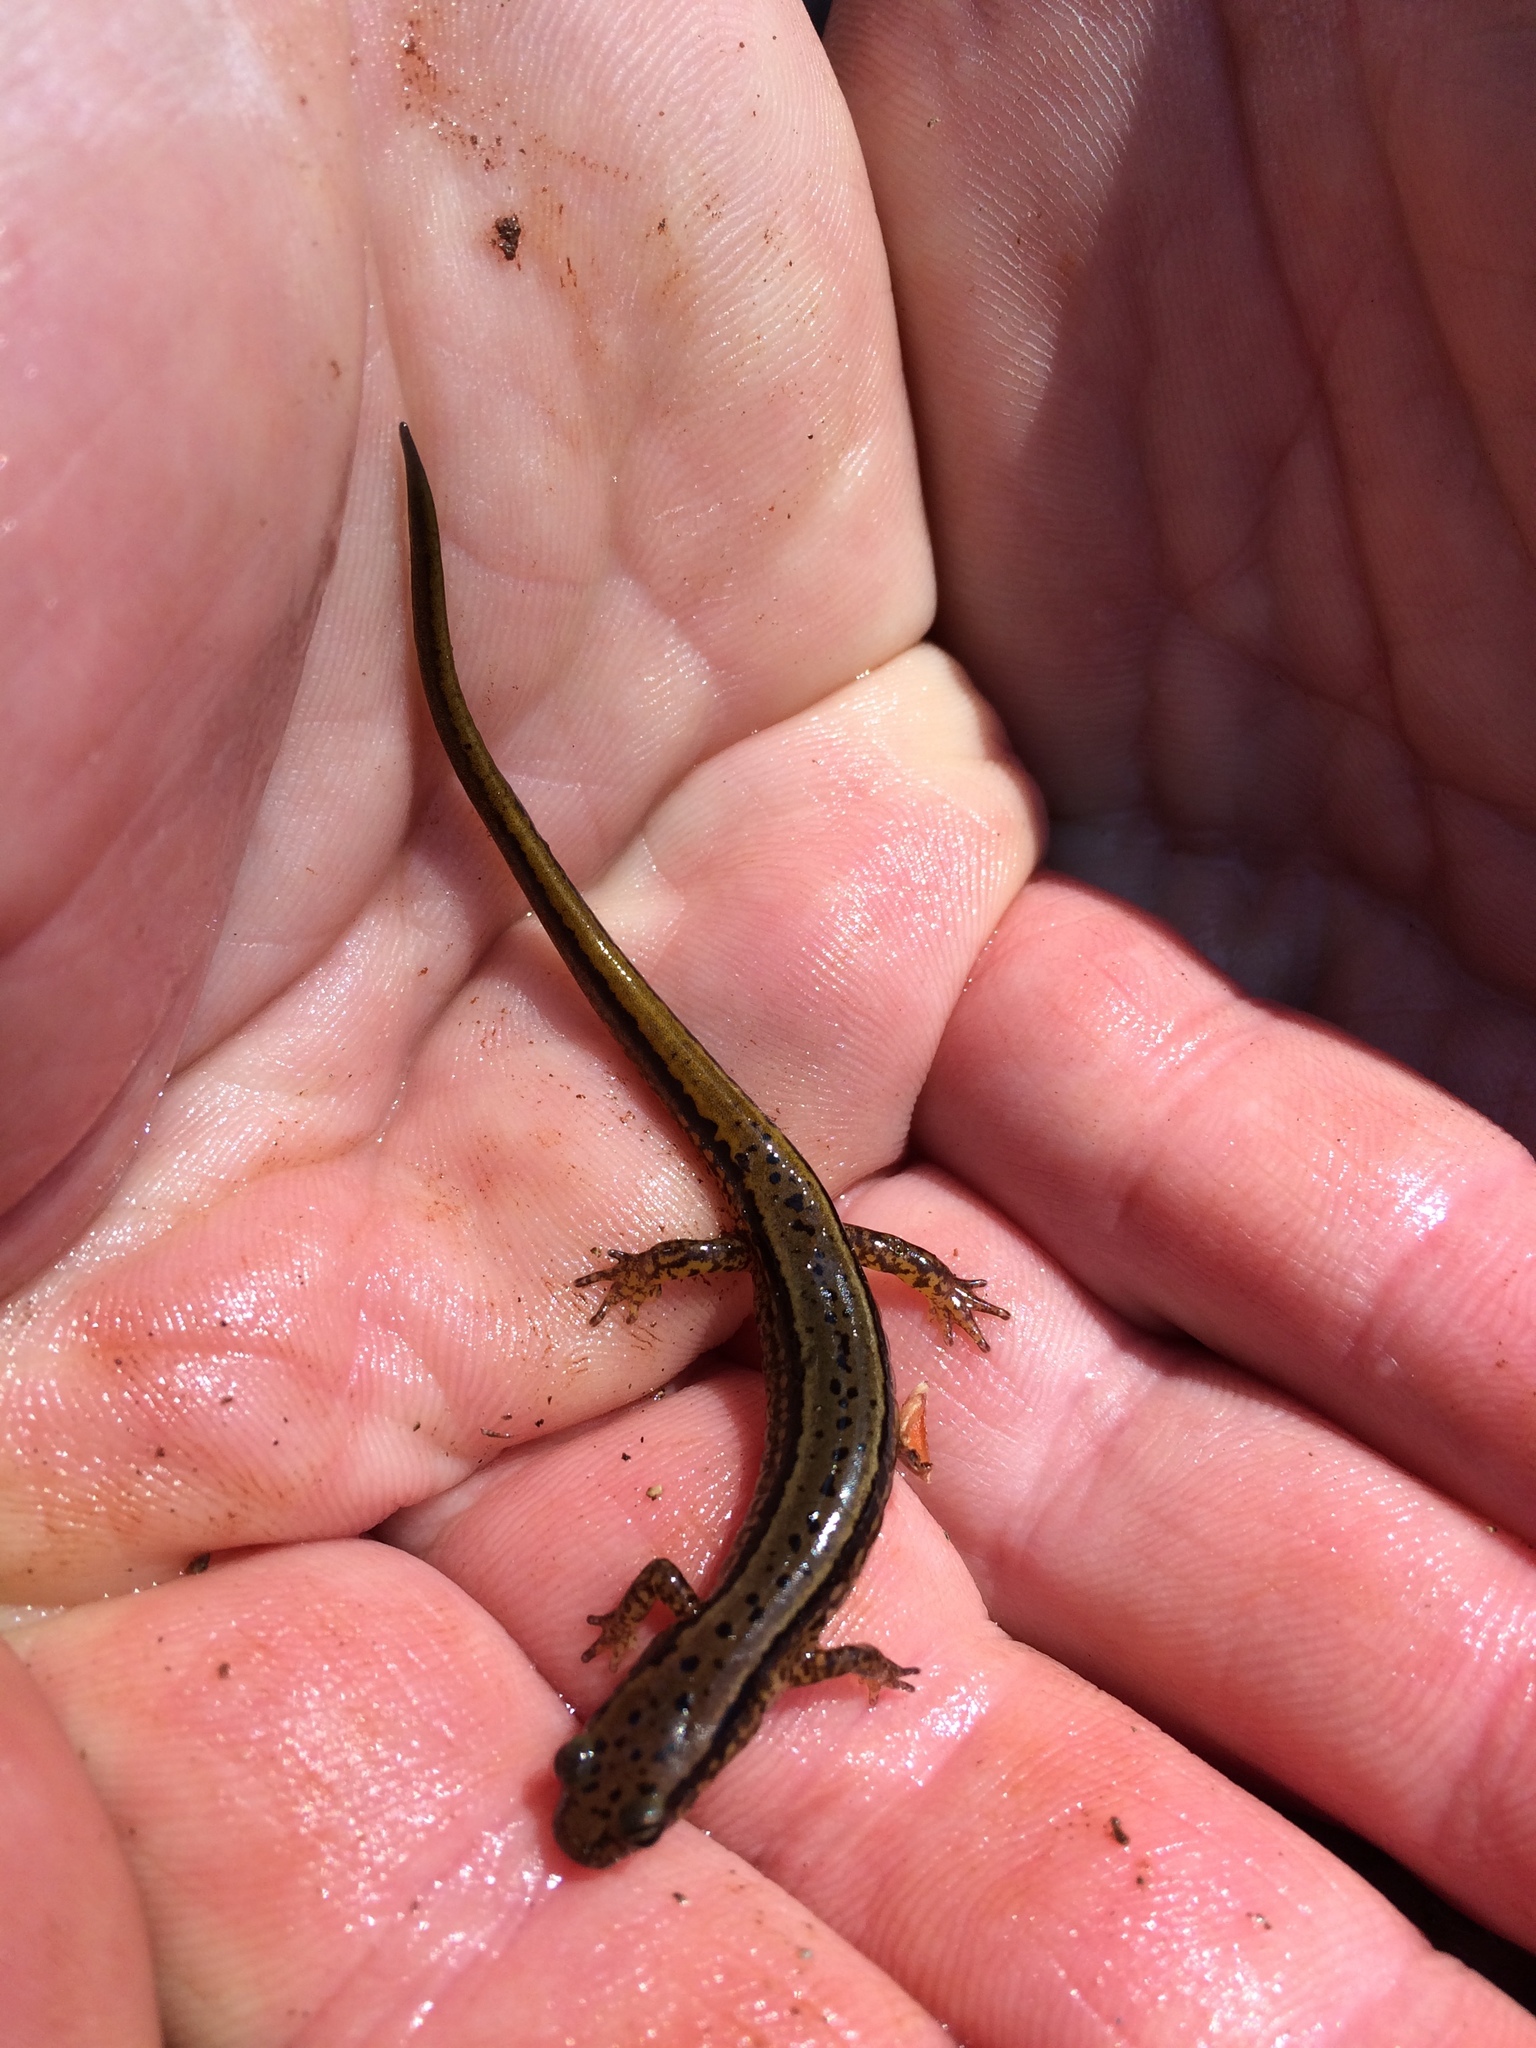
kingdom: Animalia
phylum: Chordata
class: Amphibia
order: Caudata
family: Plethodontidae
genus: Eurycea
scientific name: Eurycea cirrigera
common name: Southern two-lined salamander
